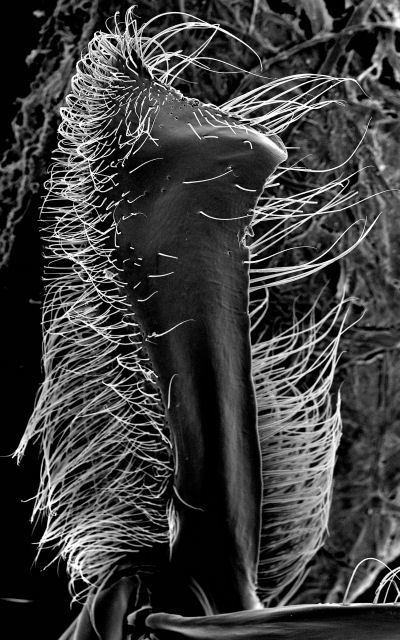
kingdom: Animalia
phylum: Arthropoda
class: Insecta
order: Hymenoptera
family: Formicidae
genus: Neivamyrmex
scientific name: Neivamyrmex melshaemeri
